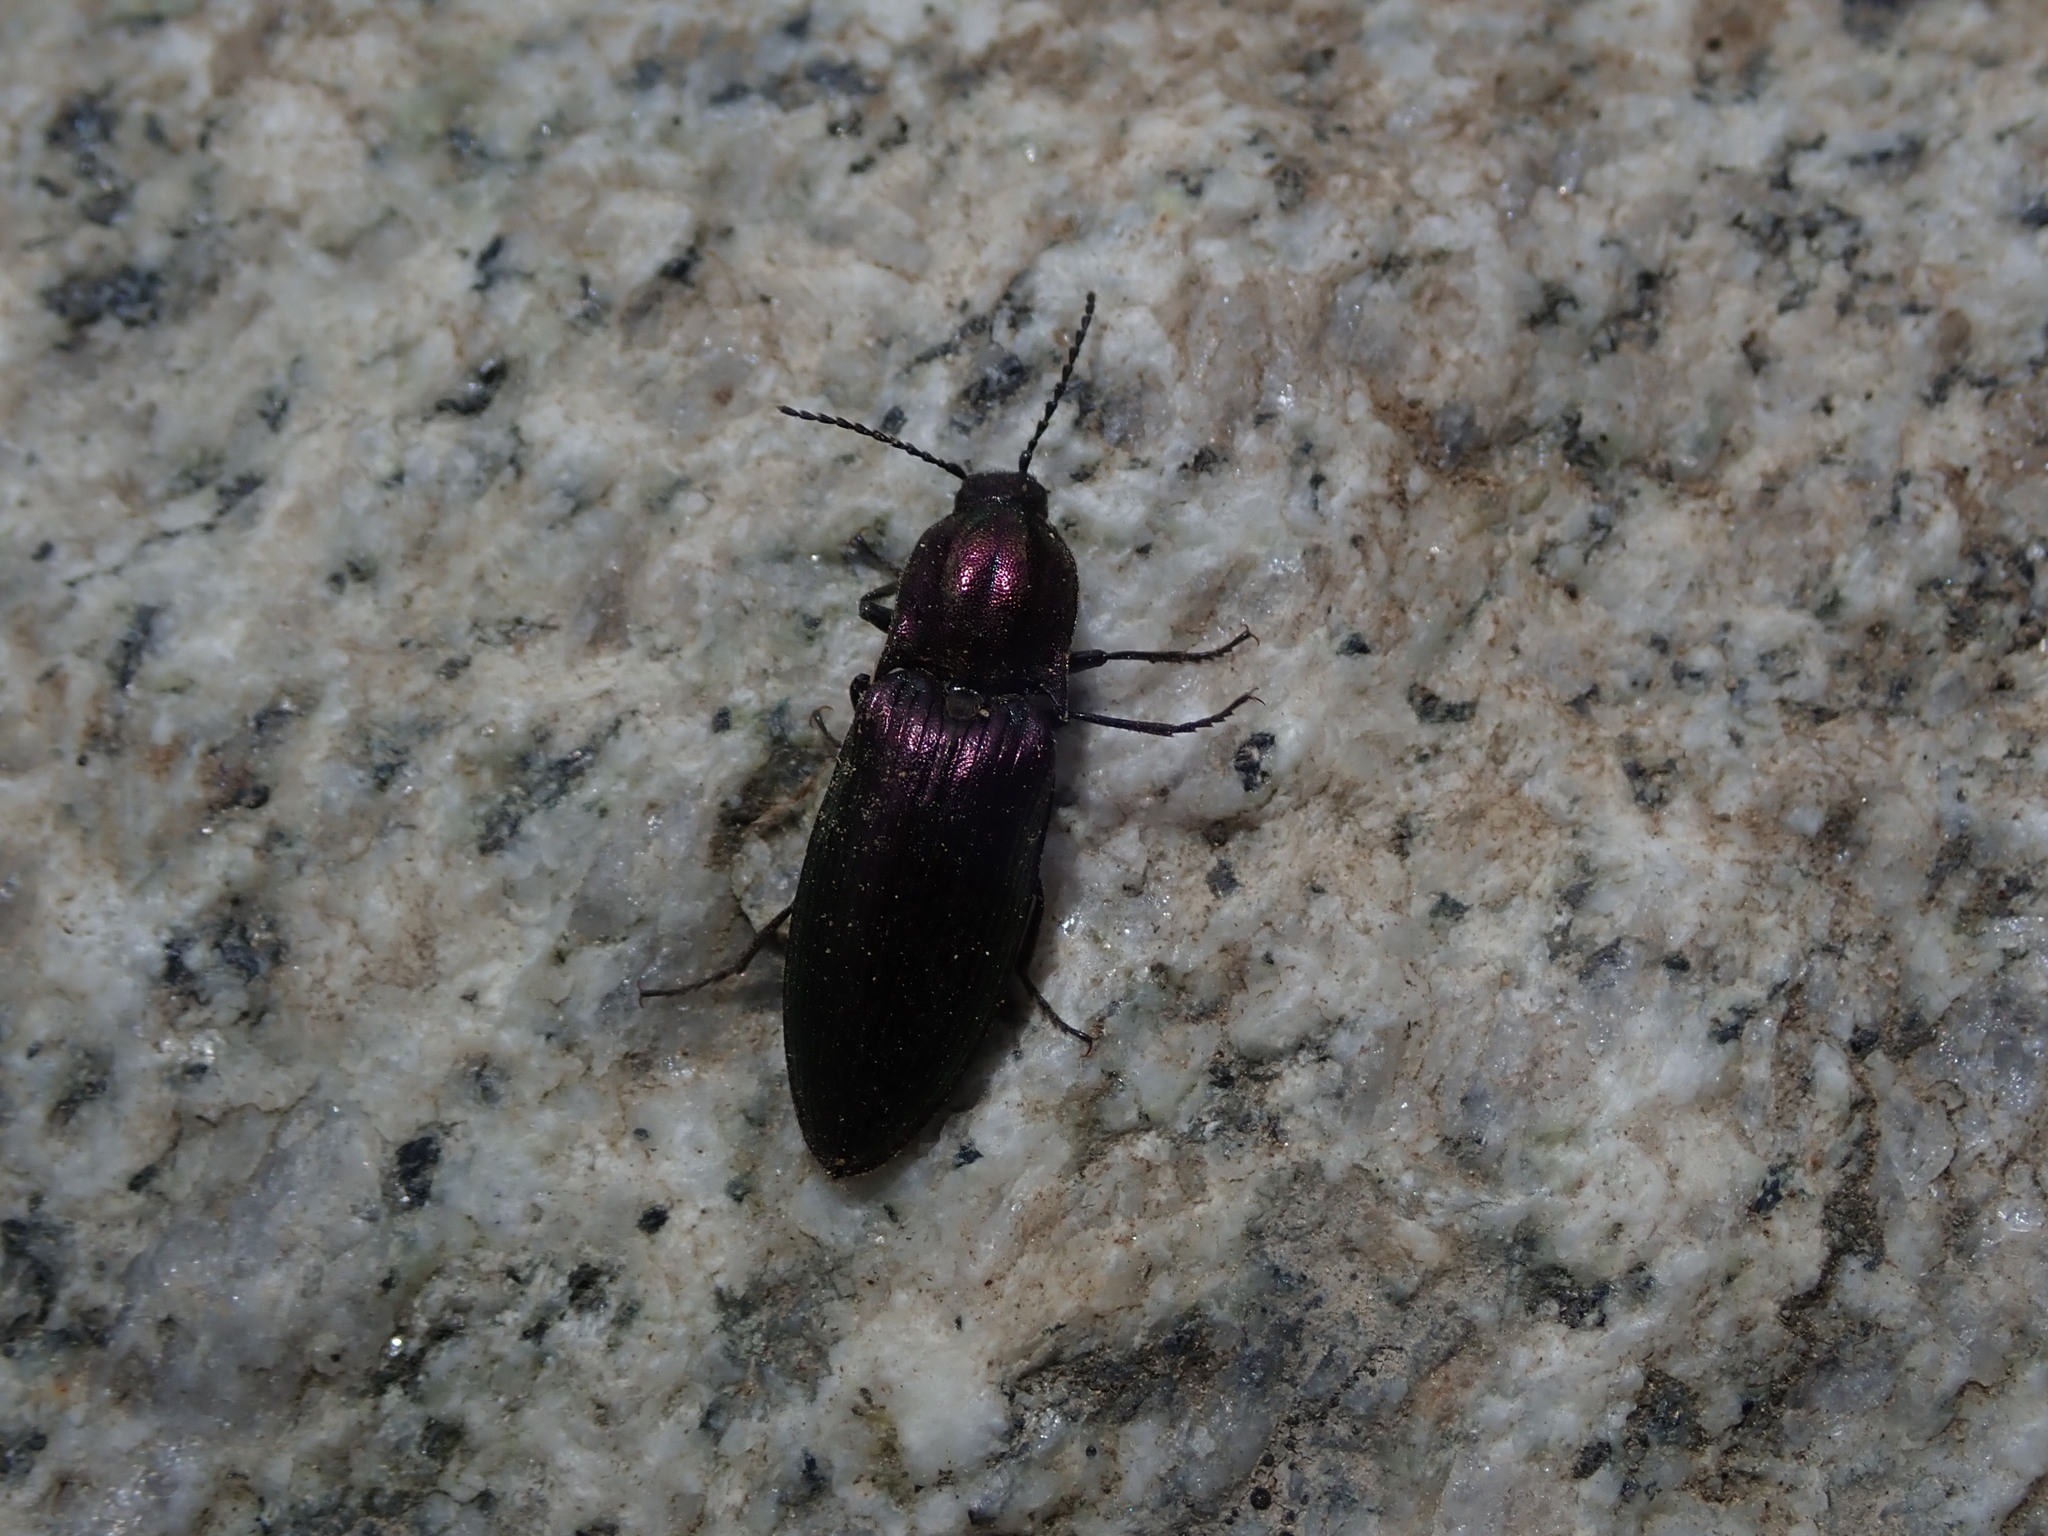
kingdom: Animalia
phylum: Arthropoda
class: Insecta
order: Coleoptera
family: Elateridae
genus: Ctenicera
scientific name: Ctenicera cuprea
